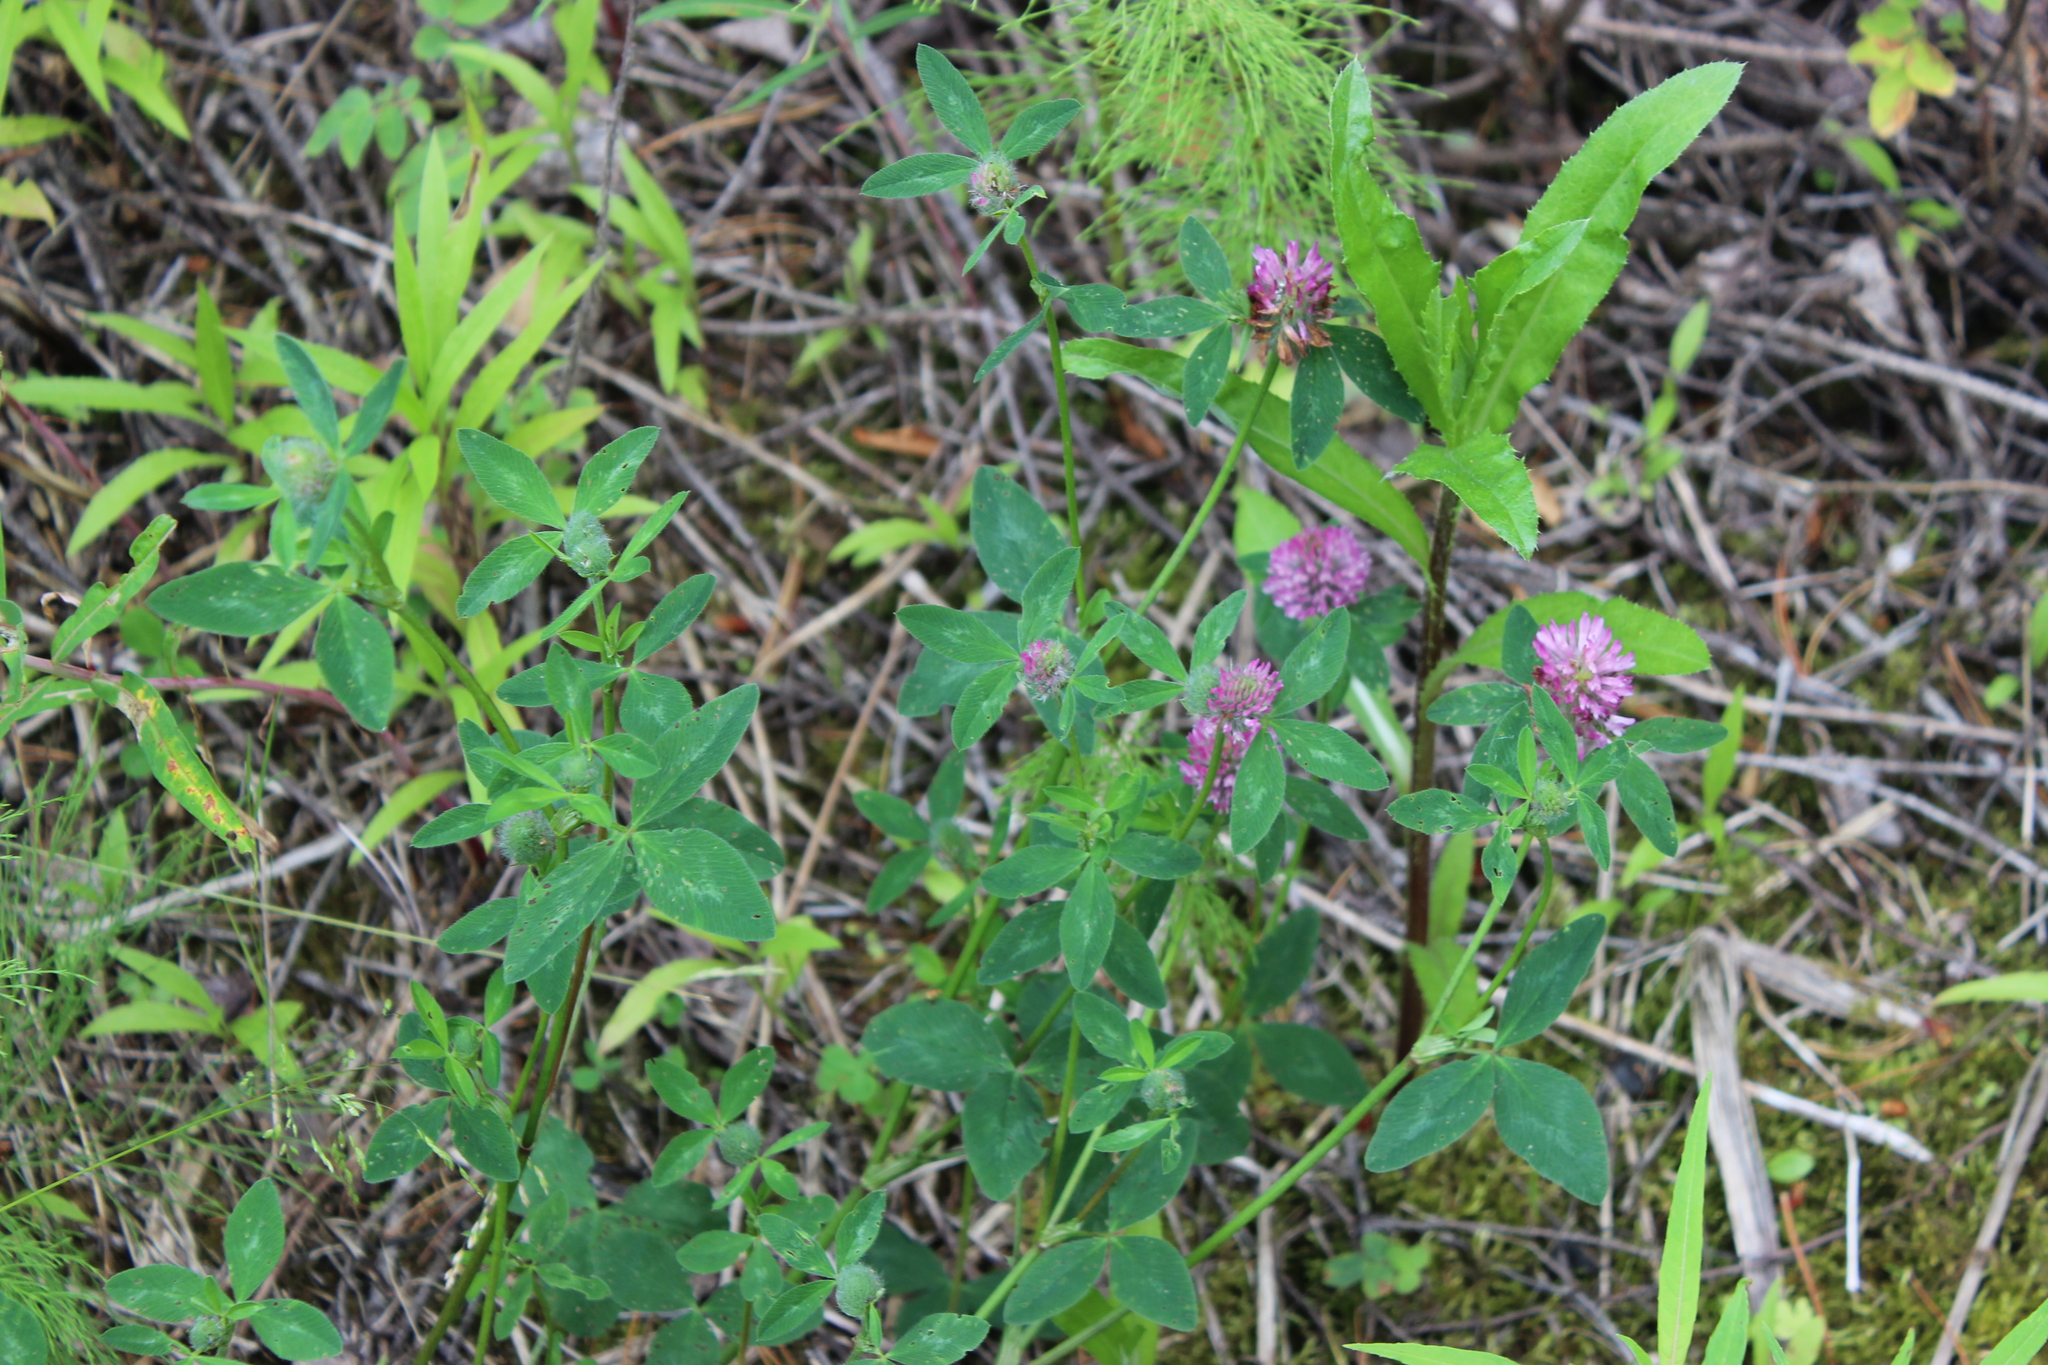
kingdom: Plantae
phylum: Tracheophyta
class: Magnoliopsida
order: Fabales
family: Fabaceae
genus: Trifolium
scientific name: Trifolium pratense
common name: Red clover
